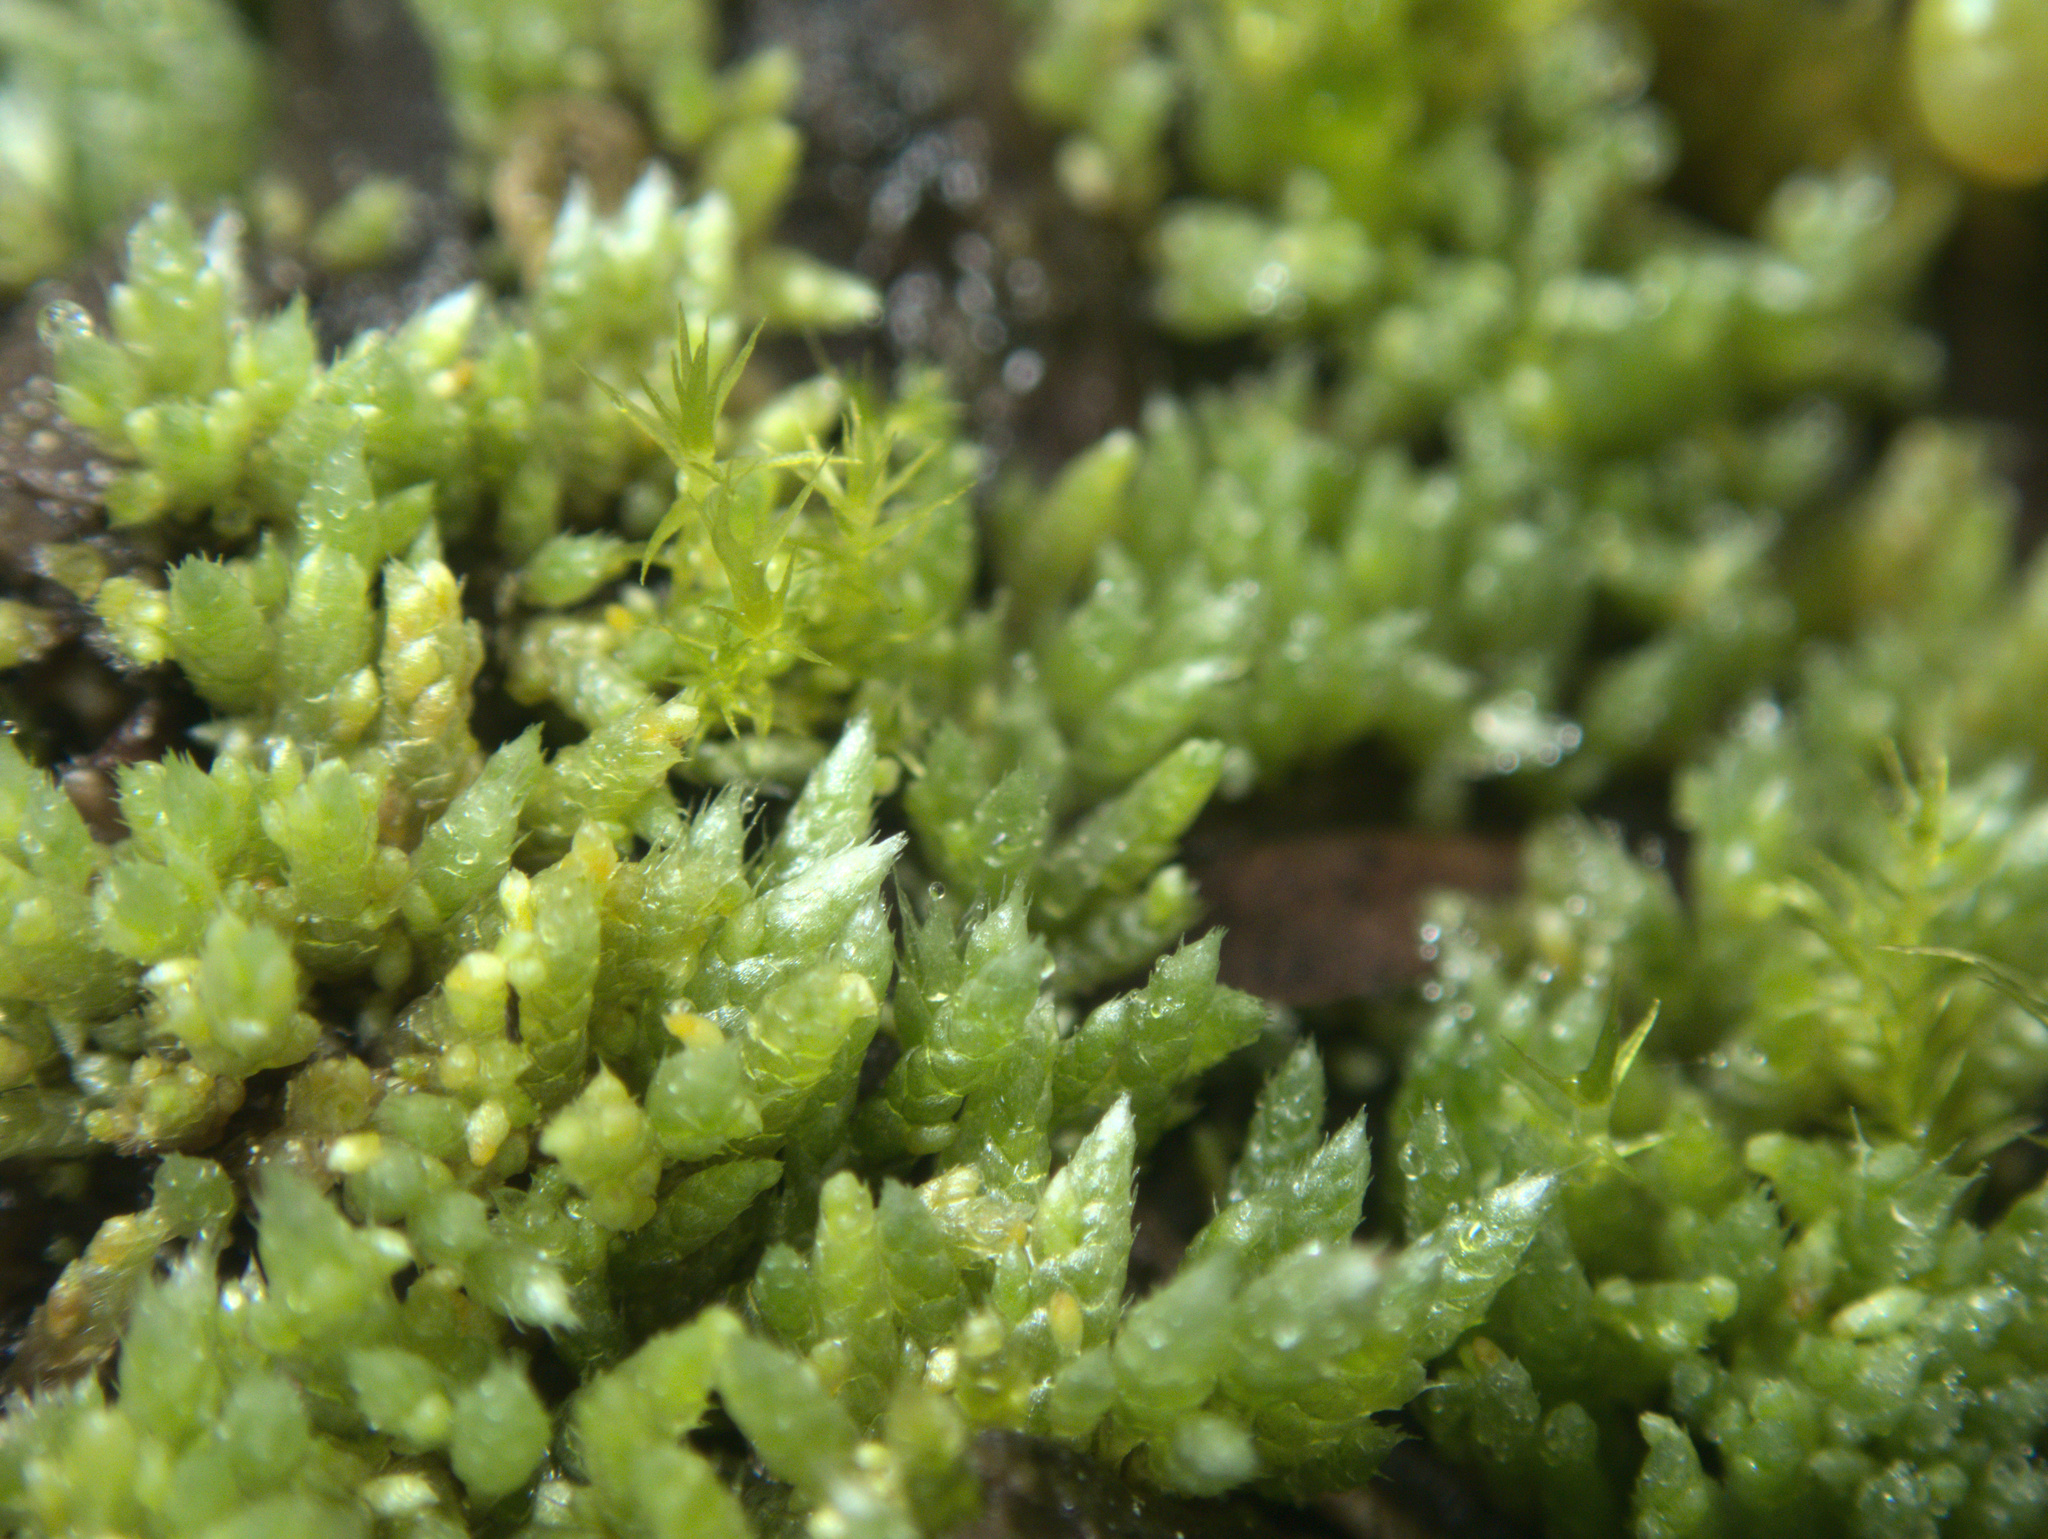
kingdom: Plantae
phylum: Bryophyta
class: Bryopsida
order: Bryales
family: Bryaceae
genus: Bryum
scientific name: Bryum argenteum
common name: Silver-moss
